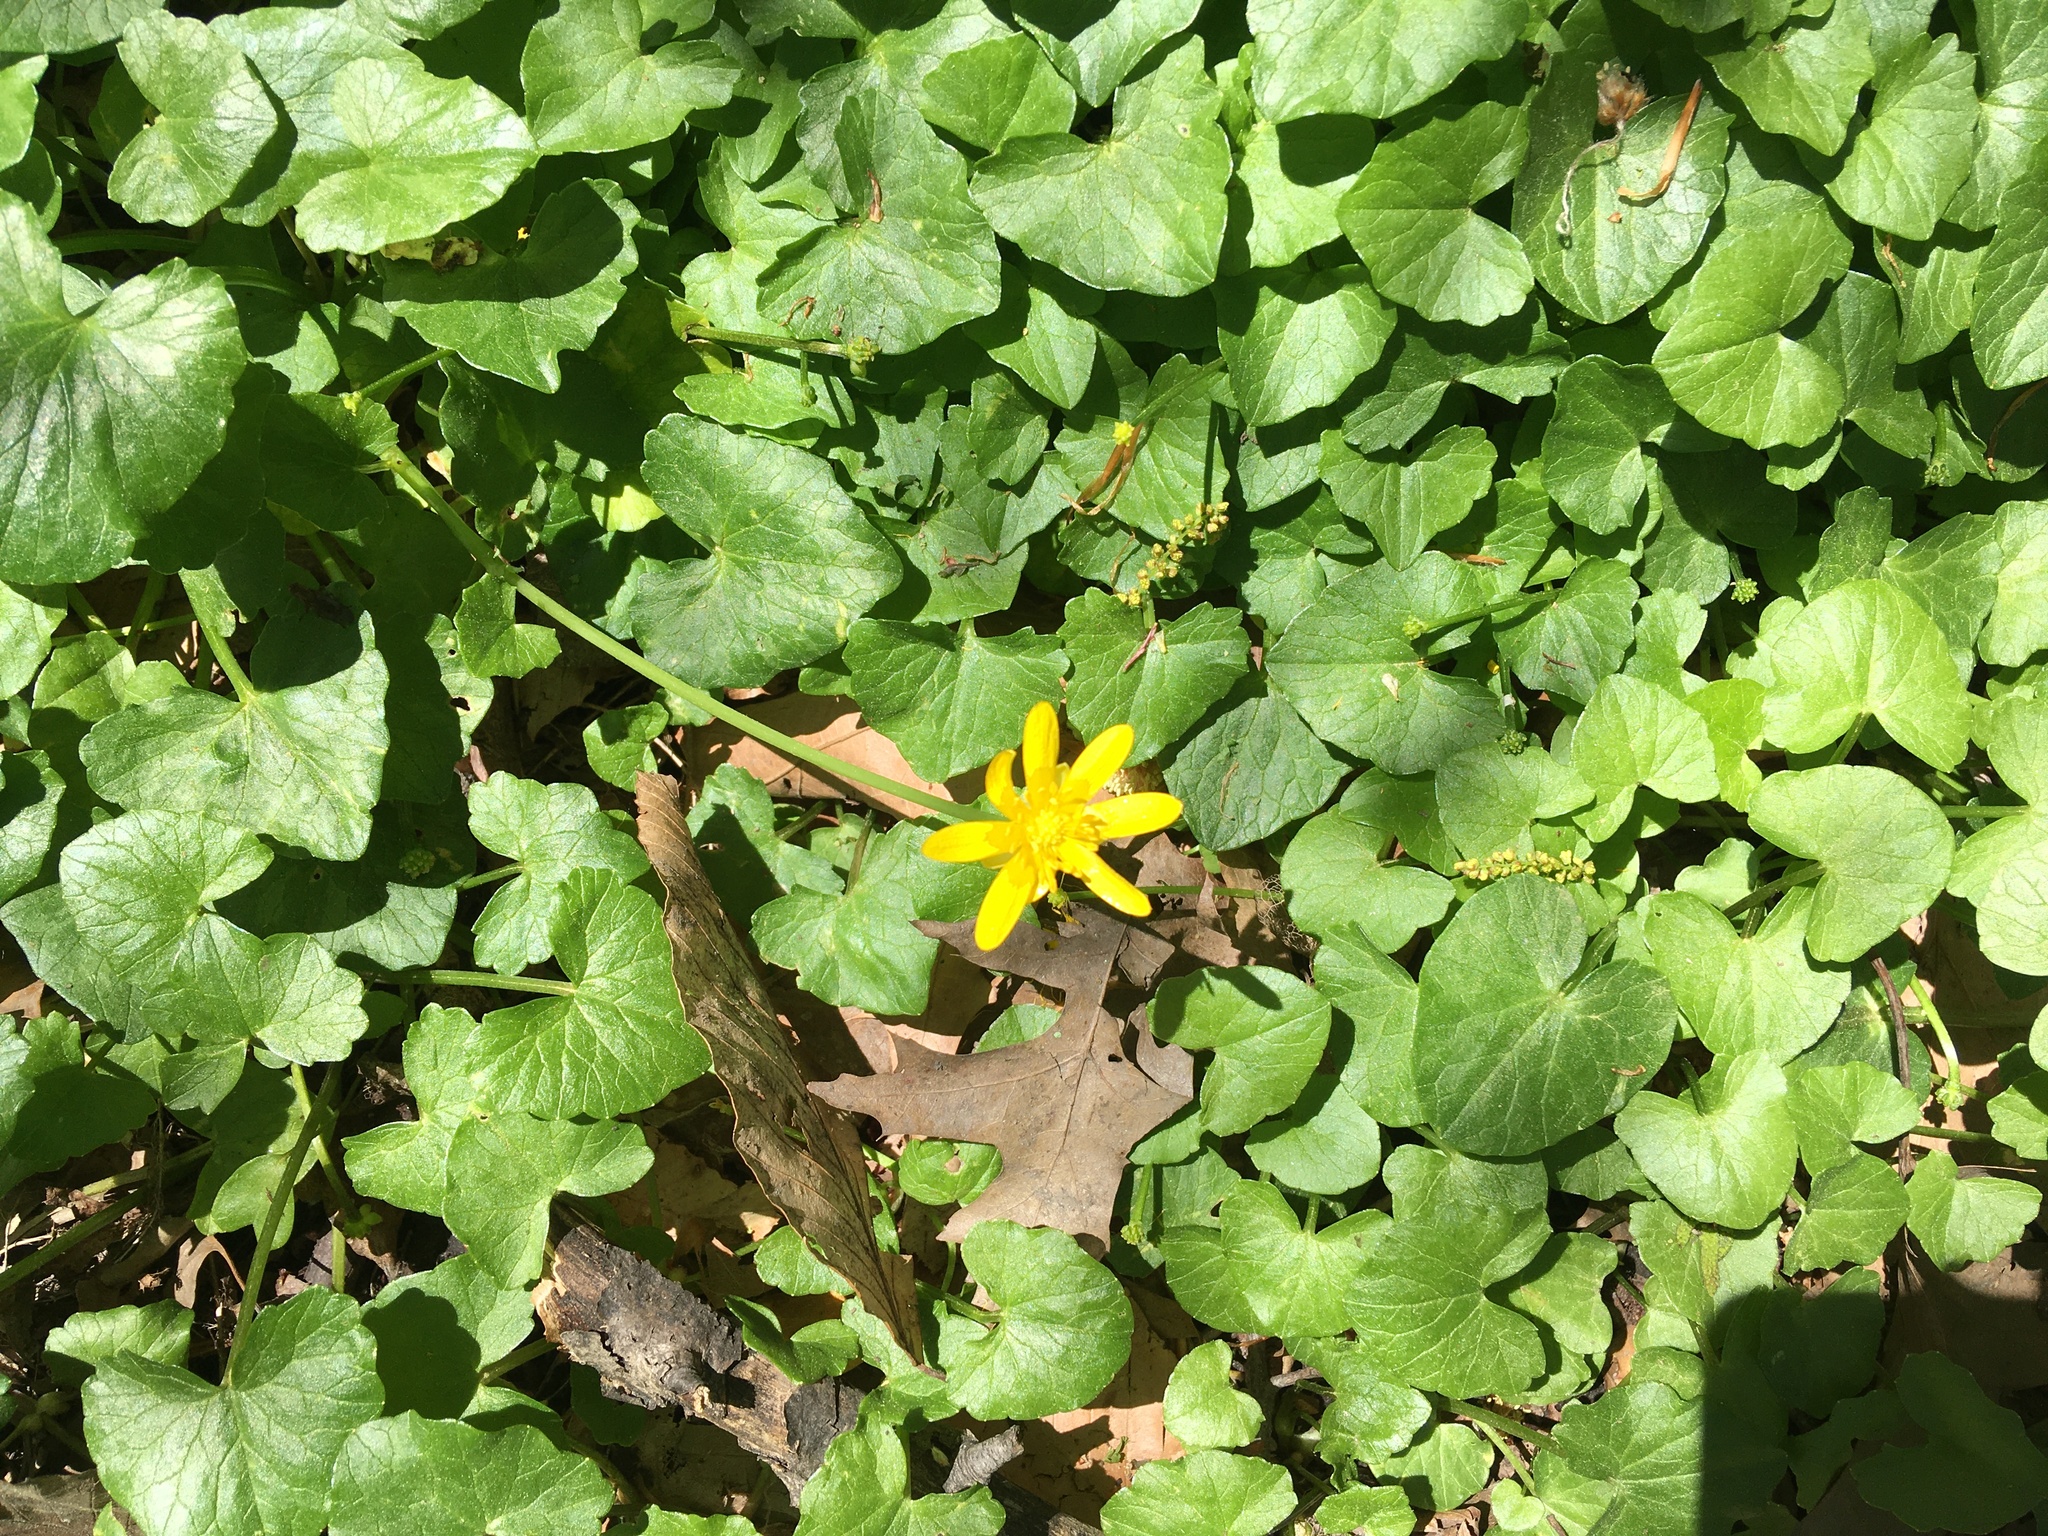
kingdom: Plantae
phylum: Tracheophyta
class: Magnoliopsida
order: Ranunculales
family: Ranunculaceae
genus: Ficaria
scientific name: Ficaria verna
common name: Lesser celandine
